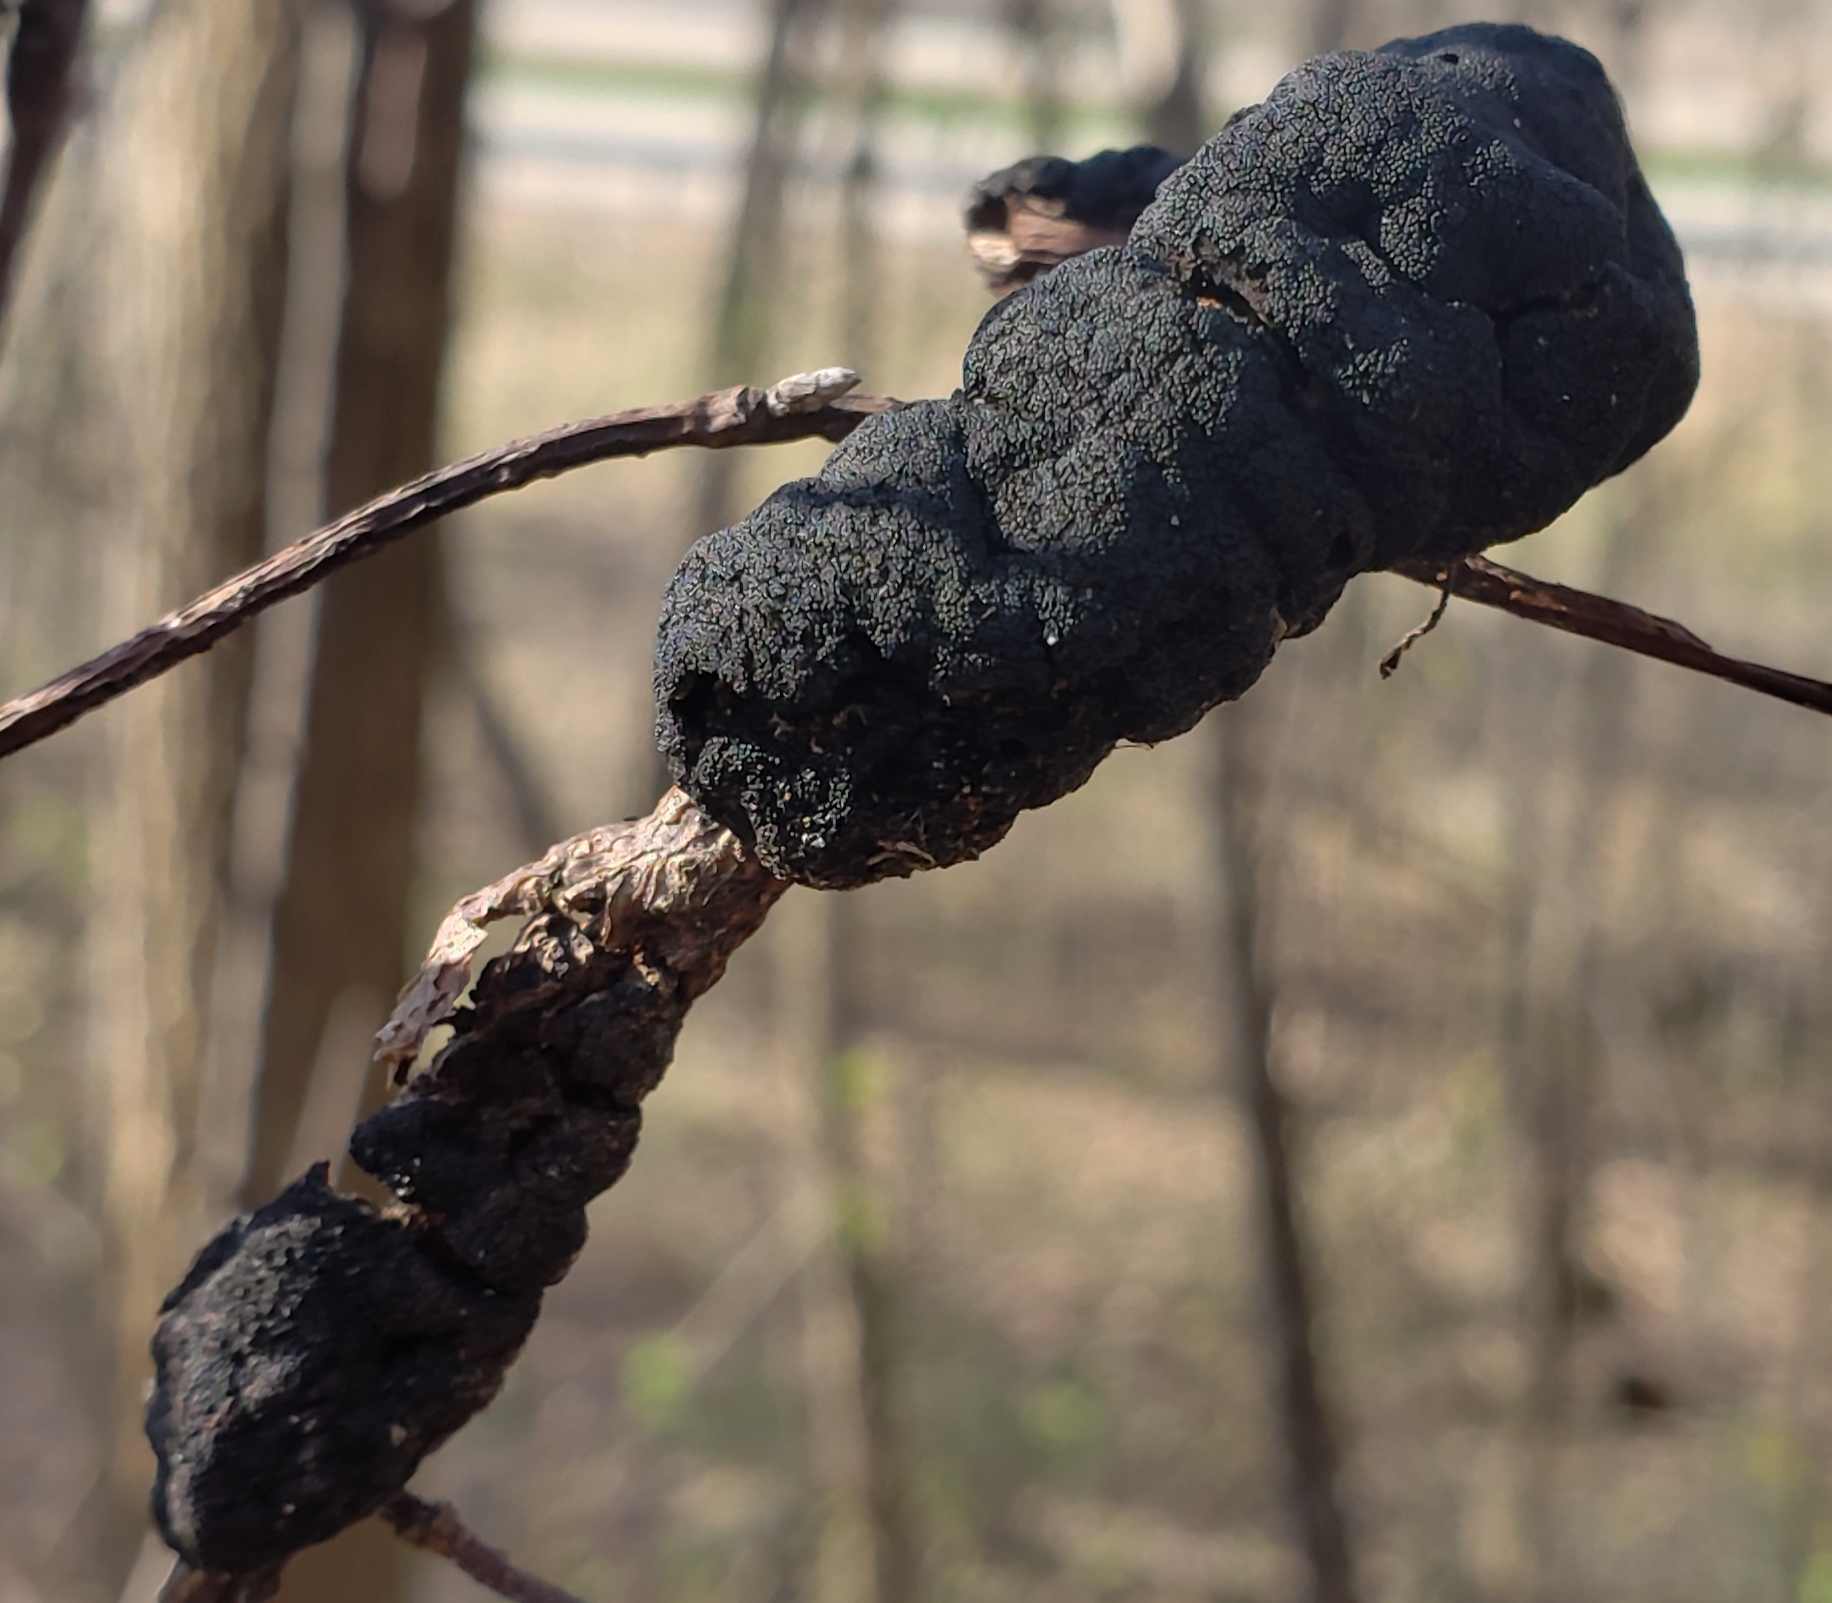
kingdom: Fungi
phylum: Ascomycota
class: Dothideomycetes
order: Venturiales
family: Venturiaceae
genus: Apiosporina
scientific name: Apiosporina morbosa
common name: Black knot
